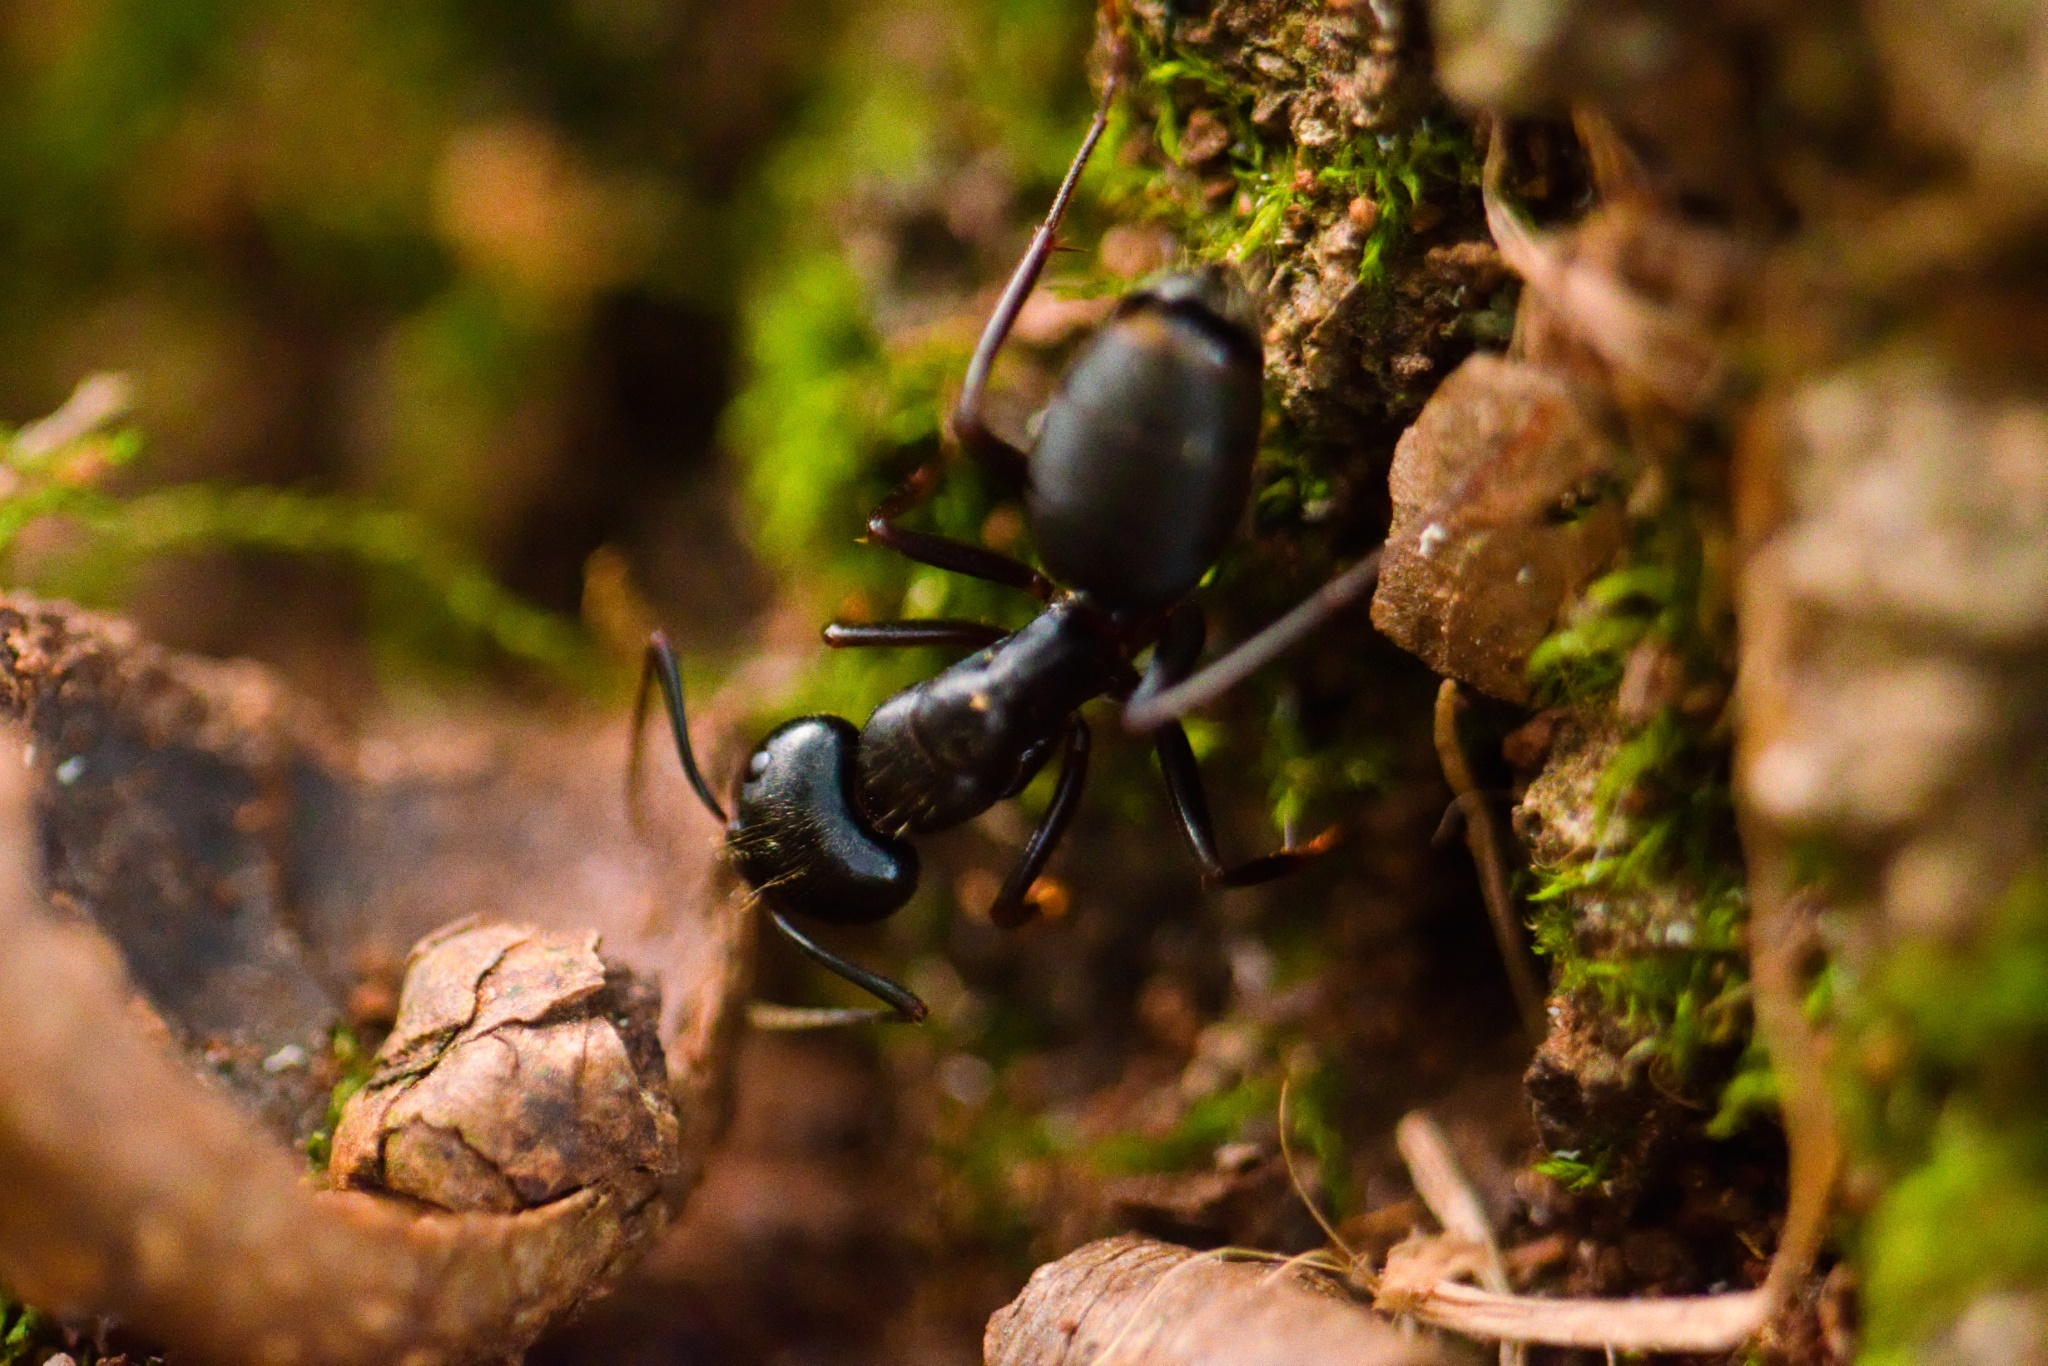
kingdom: Animalia
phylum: Arthropoda
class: Insecta
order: Hymenoptera
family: Formicidae
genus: Camponotus
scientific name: Camponotus pennsylvanicus
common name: Black carpenter ant
